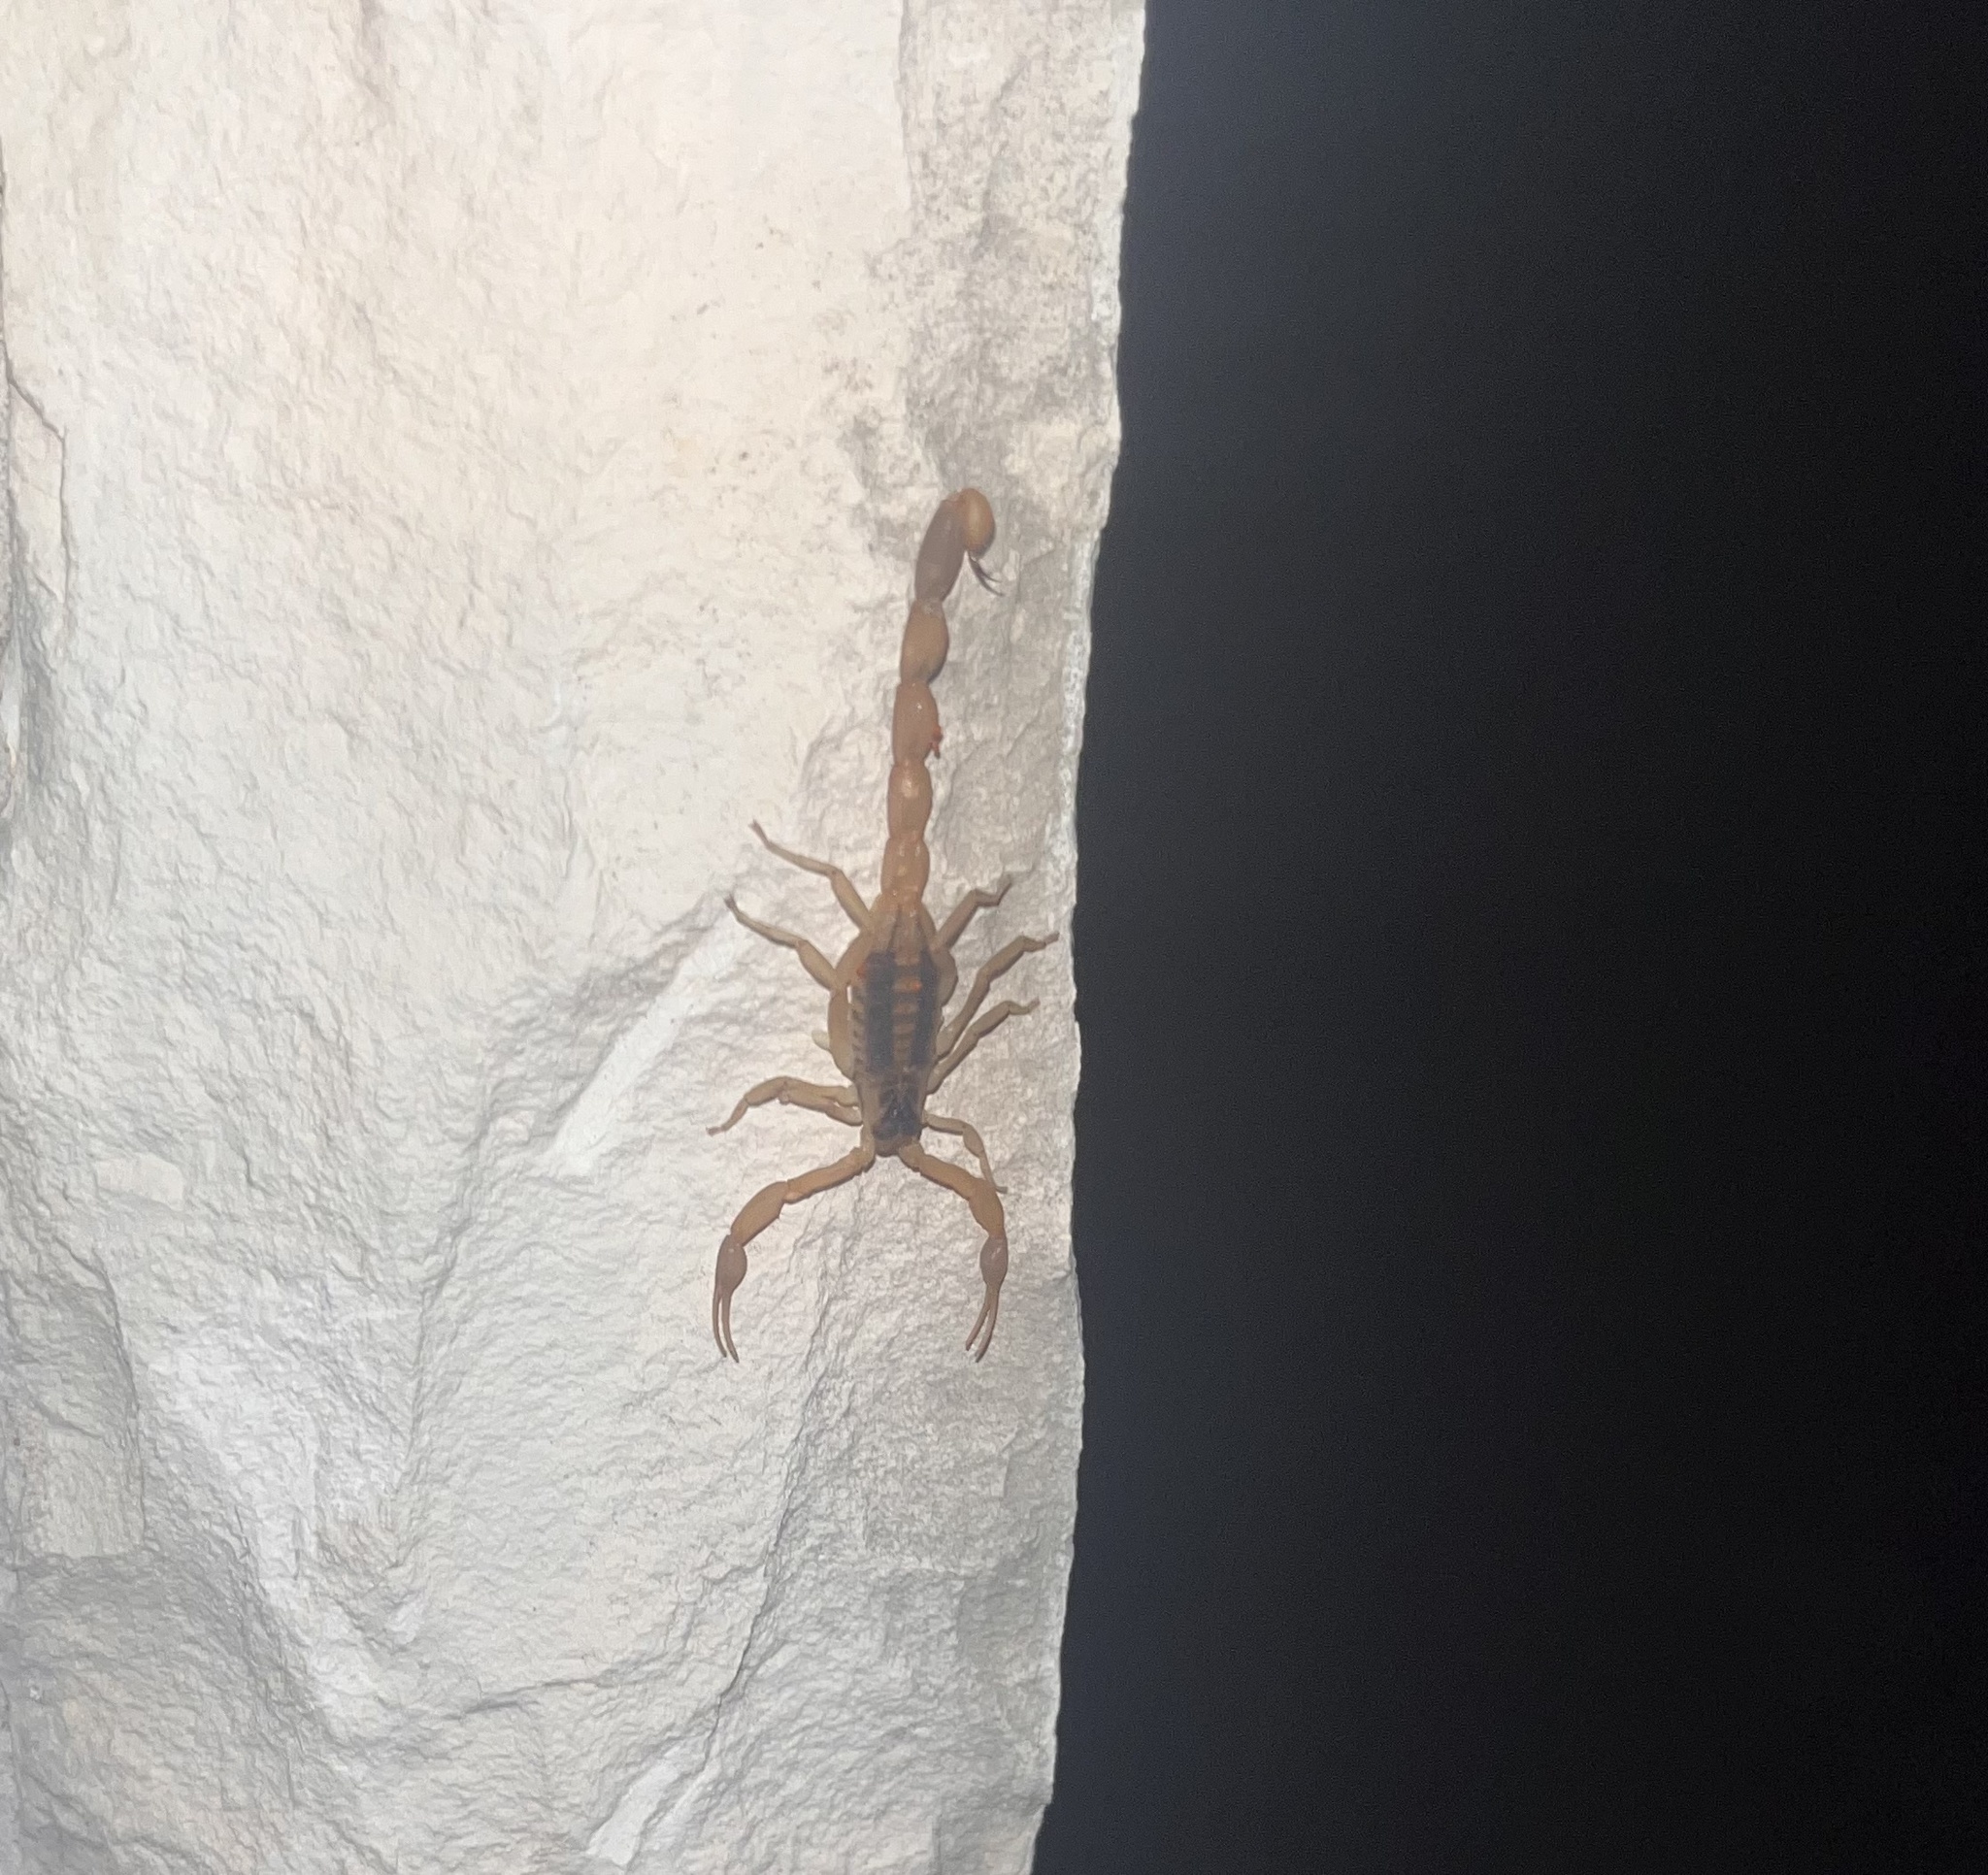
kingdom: Animalia
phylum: Arthropoda
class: Arachnida
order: Scorpiones
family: Buthidae
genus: Centruroides
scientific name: Centruroides vittatus
